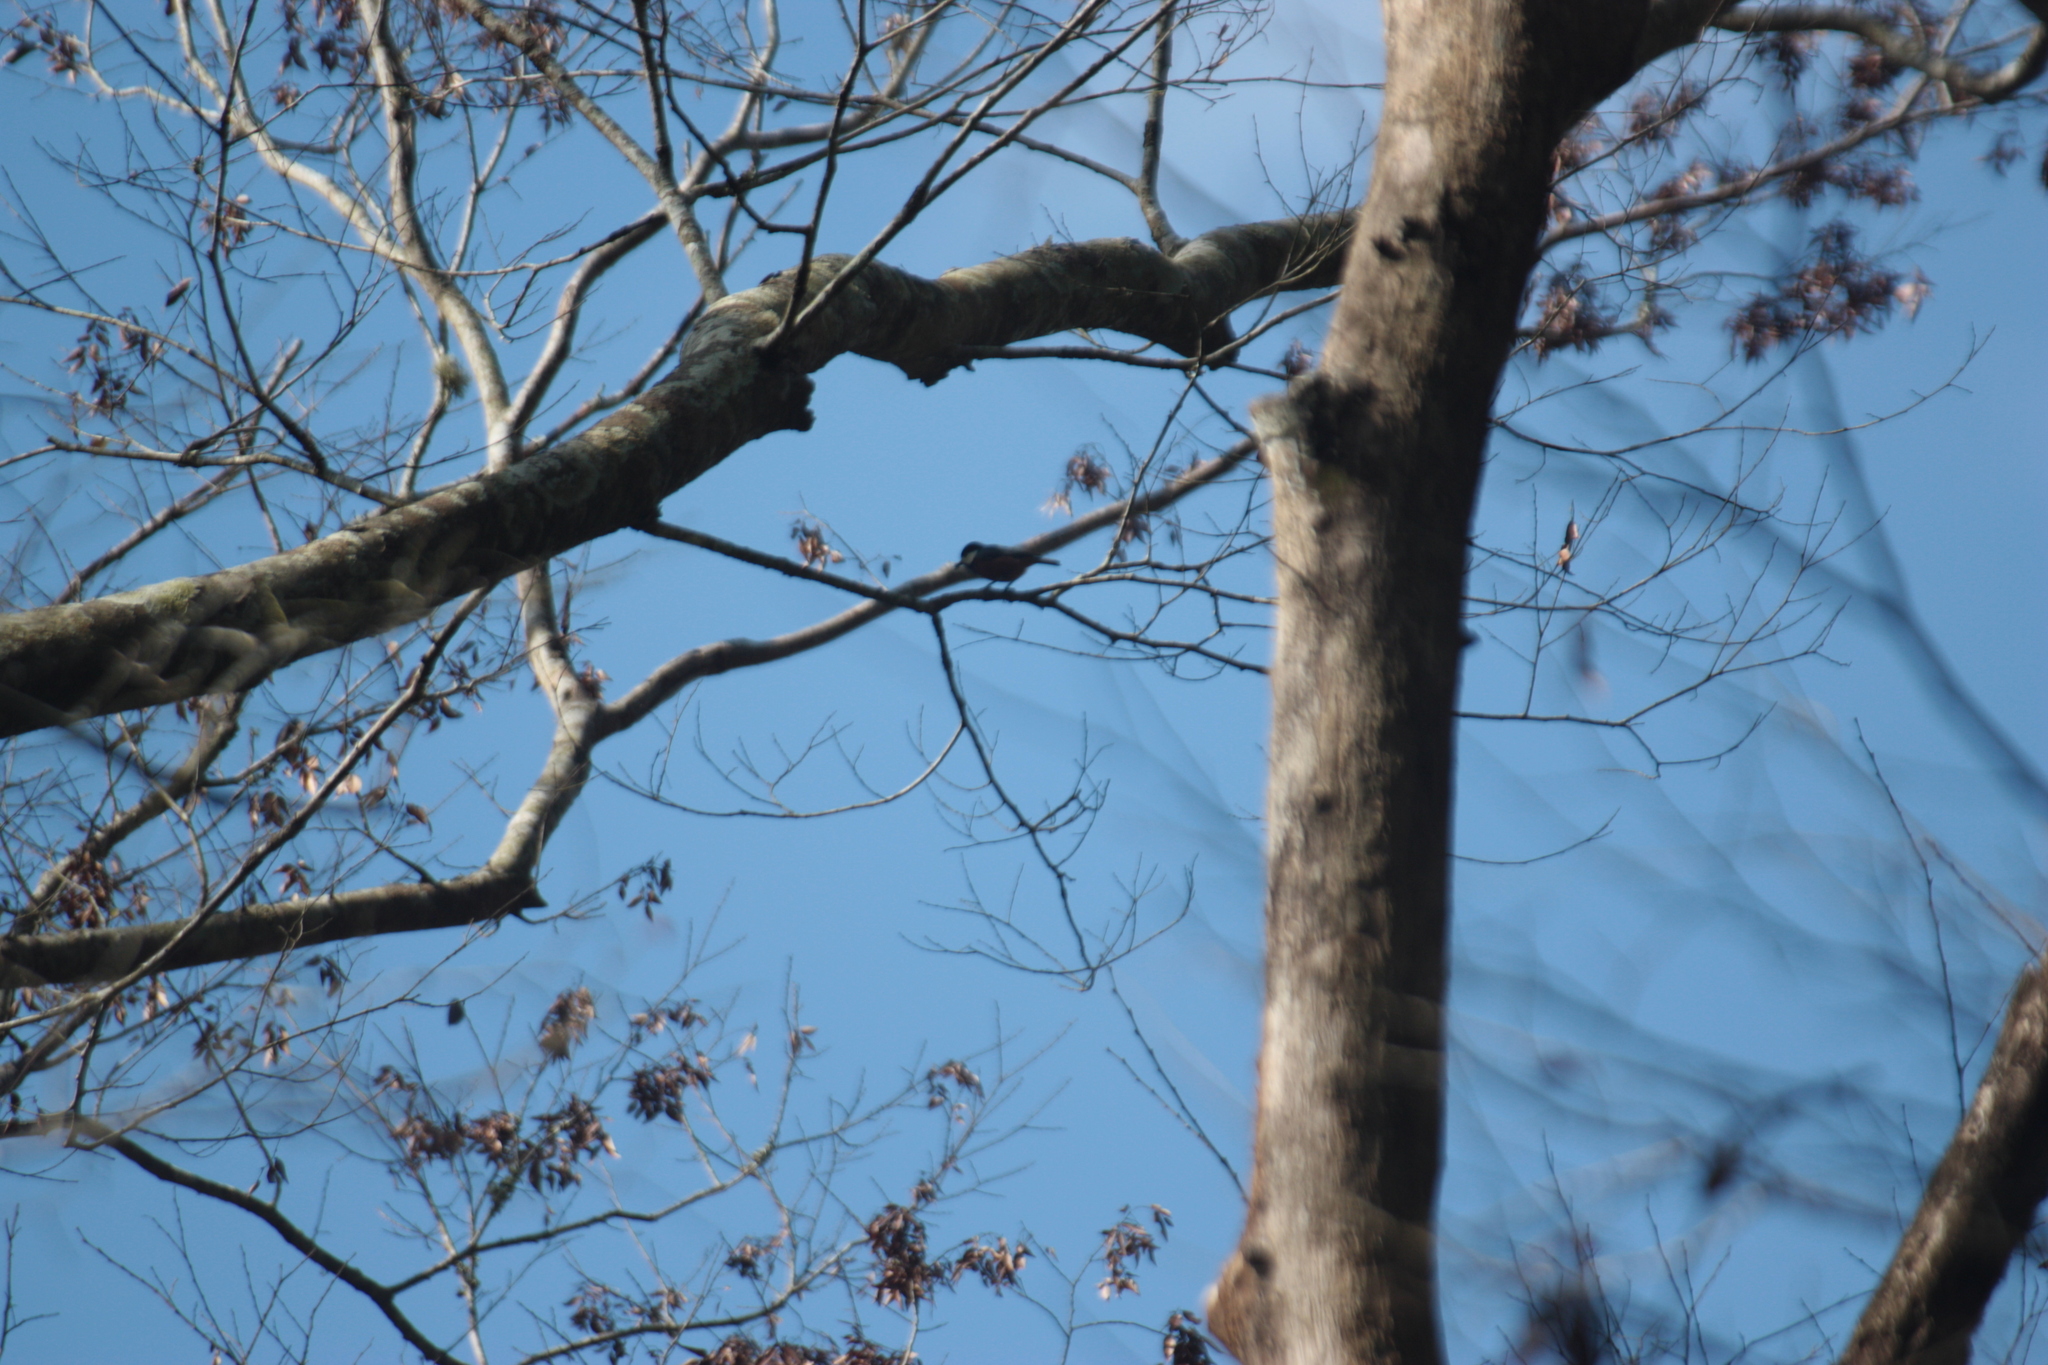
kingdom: Animalia
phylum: Chordata
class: Aves
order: Passeriformes
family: Paridae
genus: Poecile
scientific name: Poecile varius
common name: Varied tit
